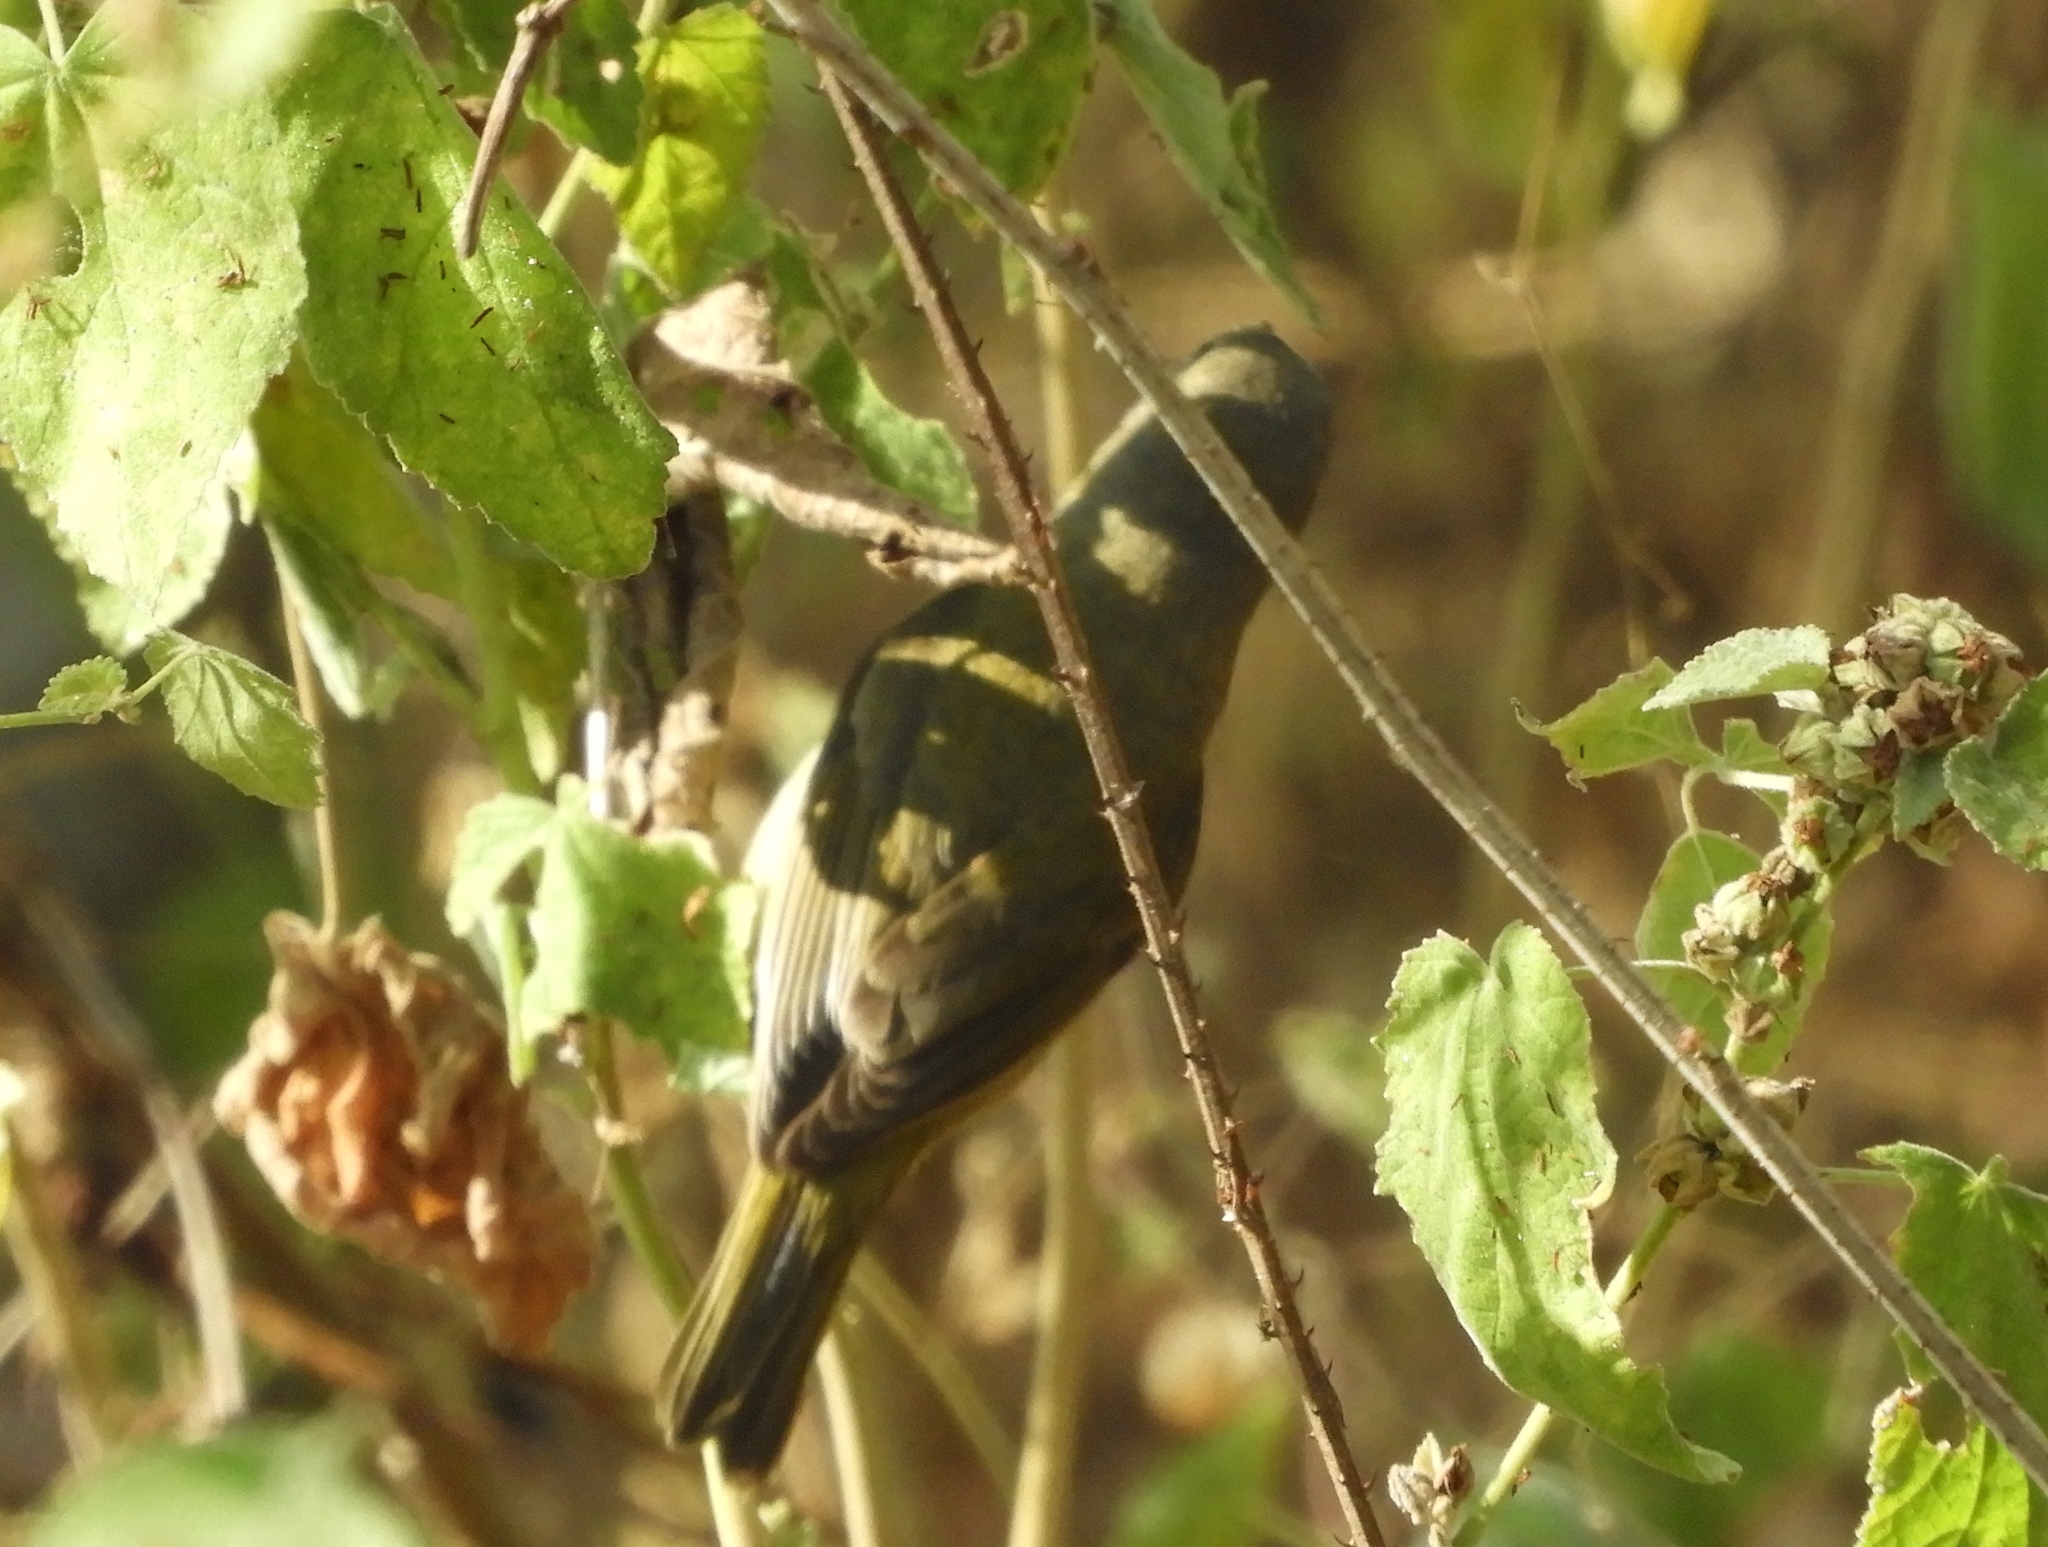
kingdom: Animalia
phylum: Chordata
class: Aves
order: Passeriformes
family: Parulidae
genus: Leiothlypis
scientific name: Leiothlypis celata
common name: Orange-crowned warbler
